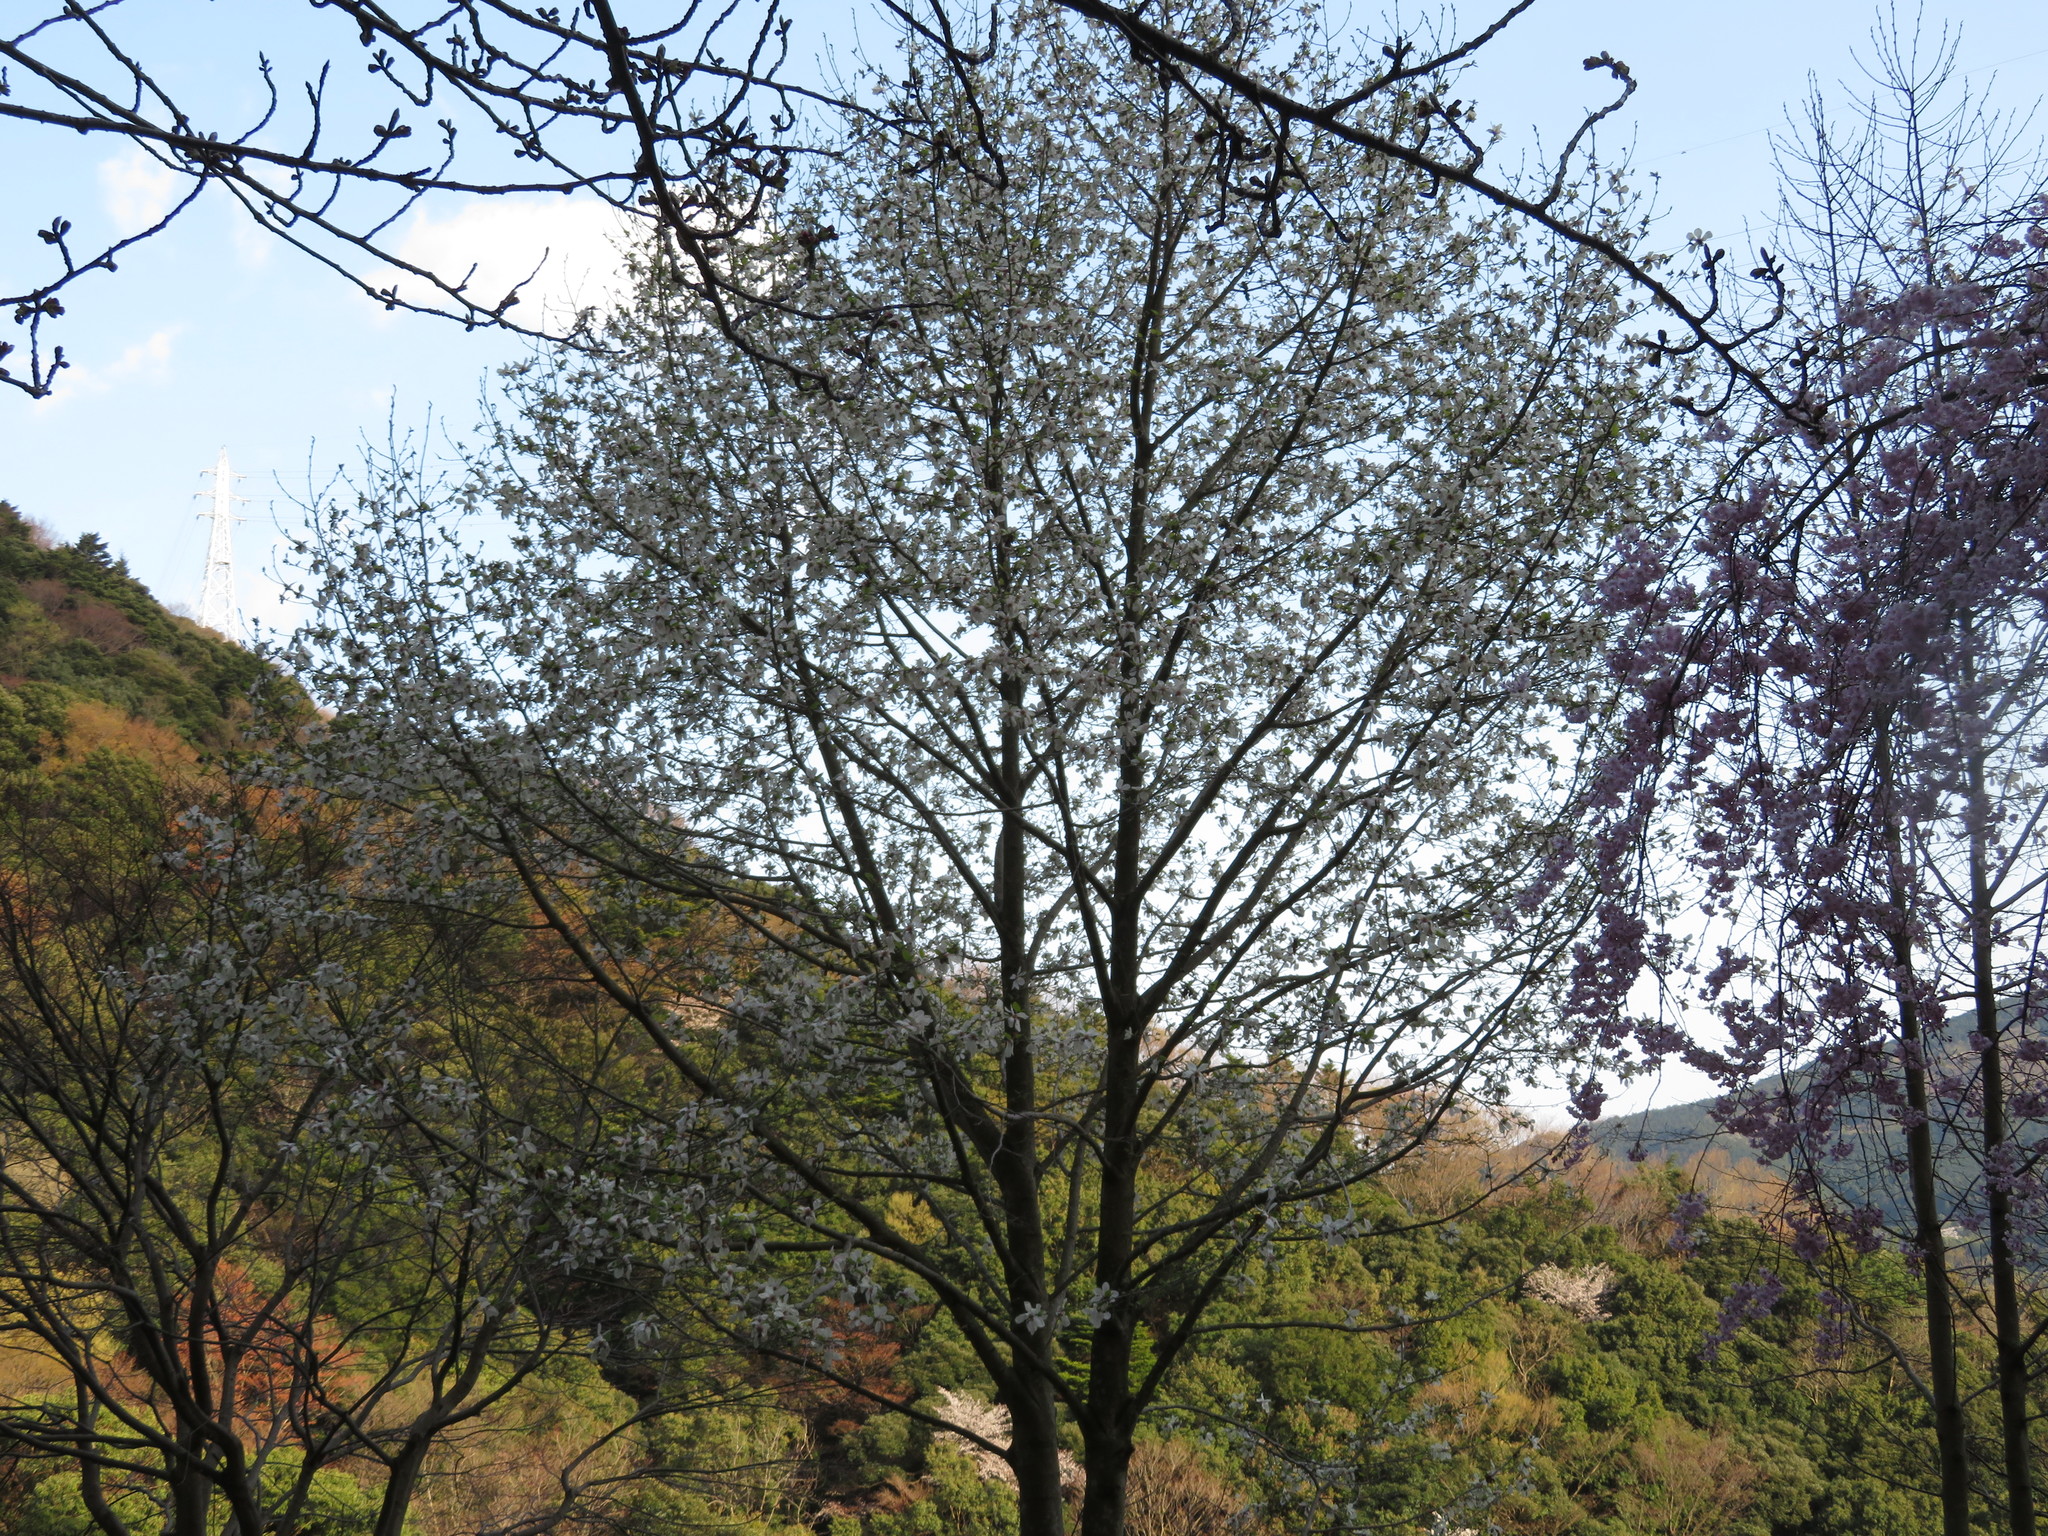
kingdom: Plantae
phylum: Tracheophyta
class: Magnoliopsida
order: Magnoliales
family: Magnoliaceae
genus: Magnolia
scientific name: Magnolia kobus
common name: Kobus magnolia
